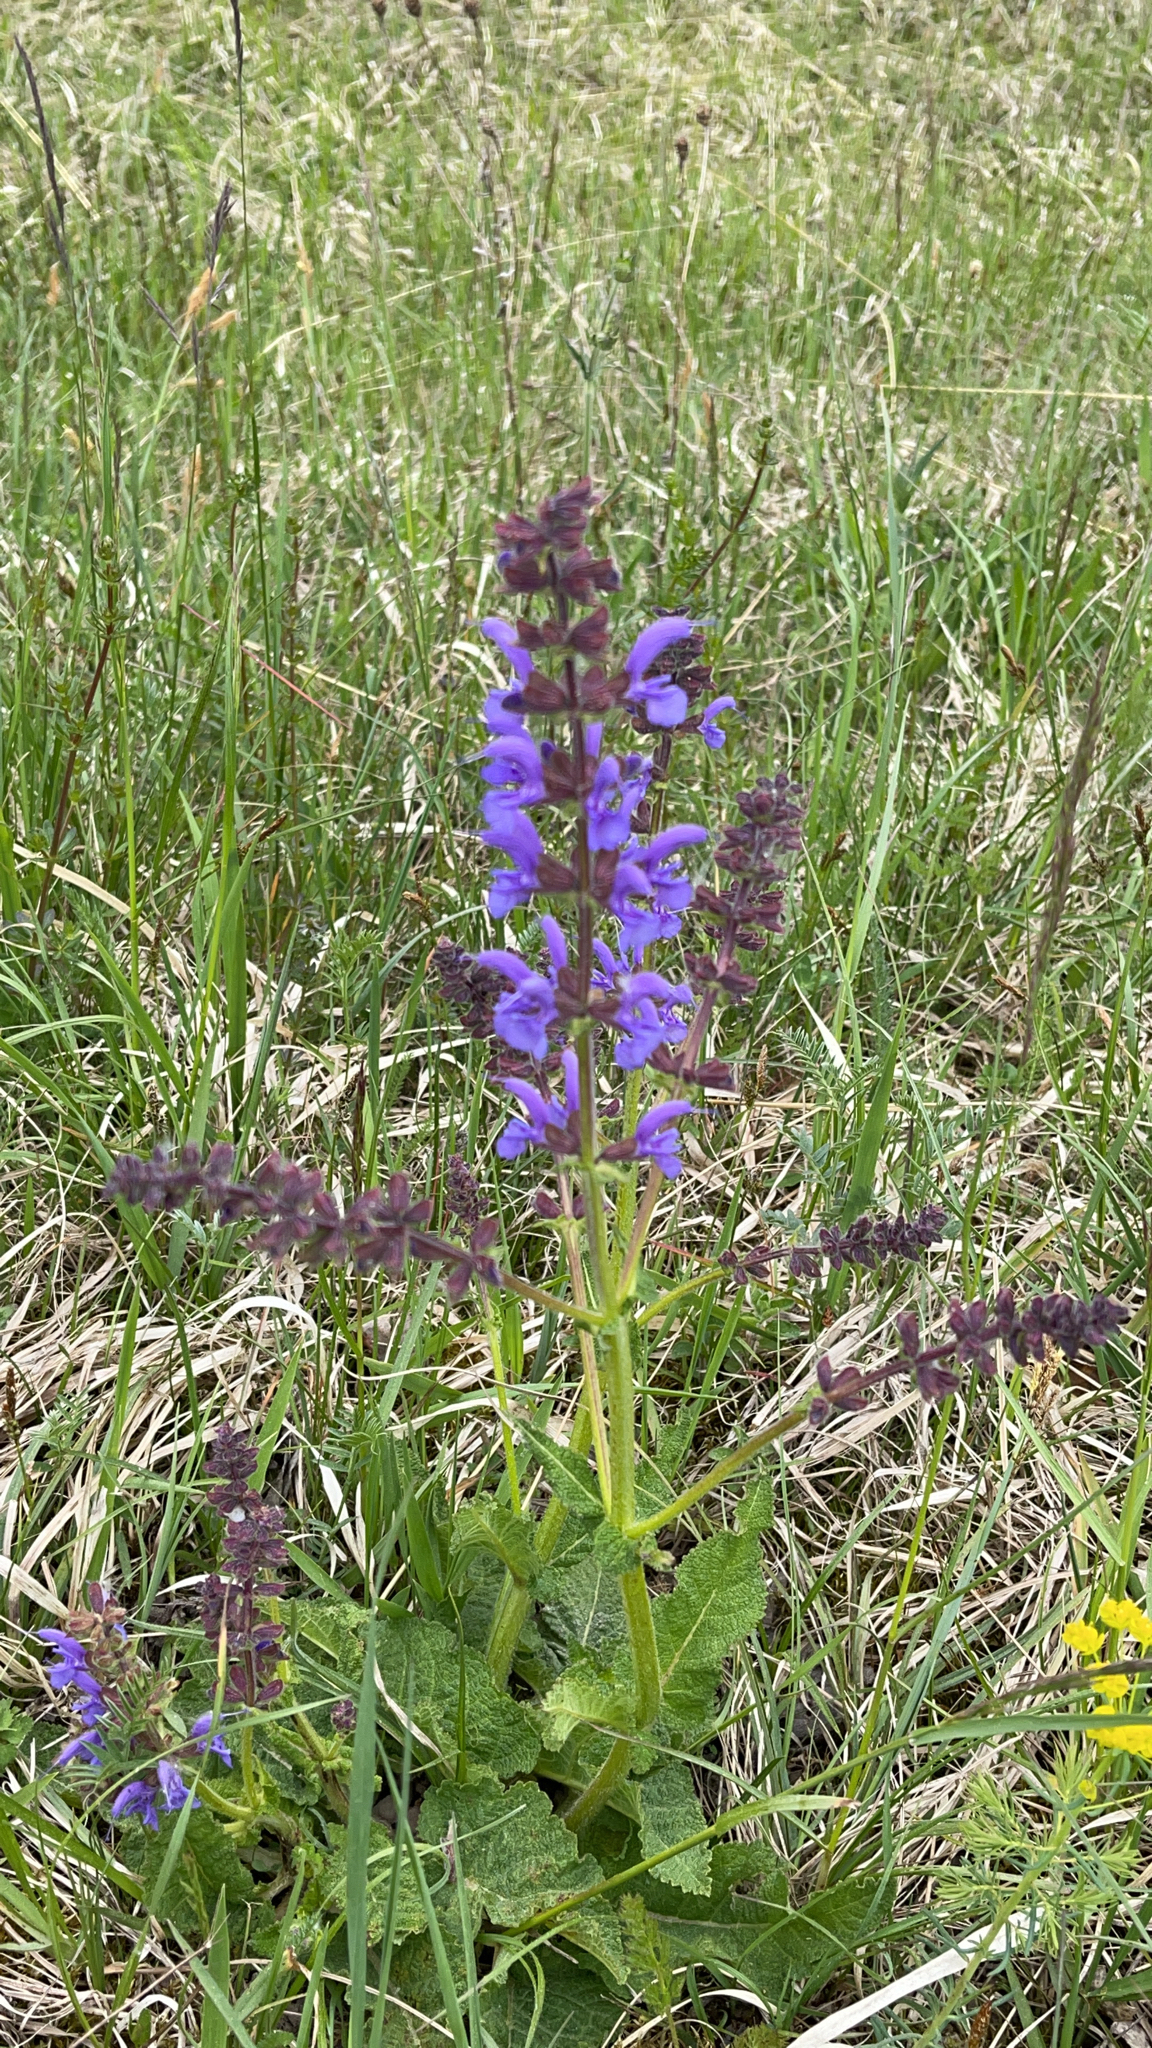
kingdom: Plantae
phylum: Tracheophyta
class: Magnoliopsida
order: Lamiales
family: Lamiaceae
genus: Salvia
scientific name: Salvia pratensis
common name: Meadow sage
